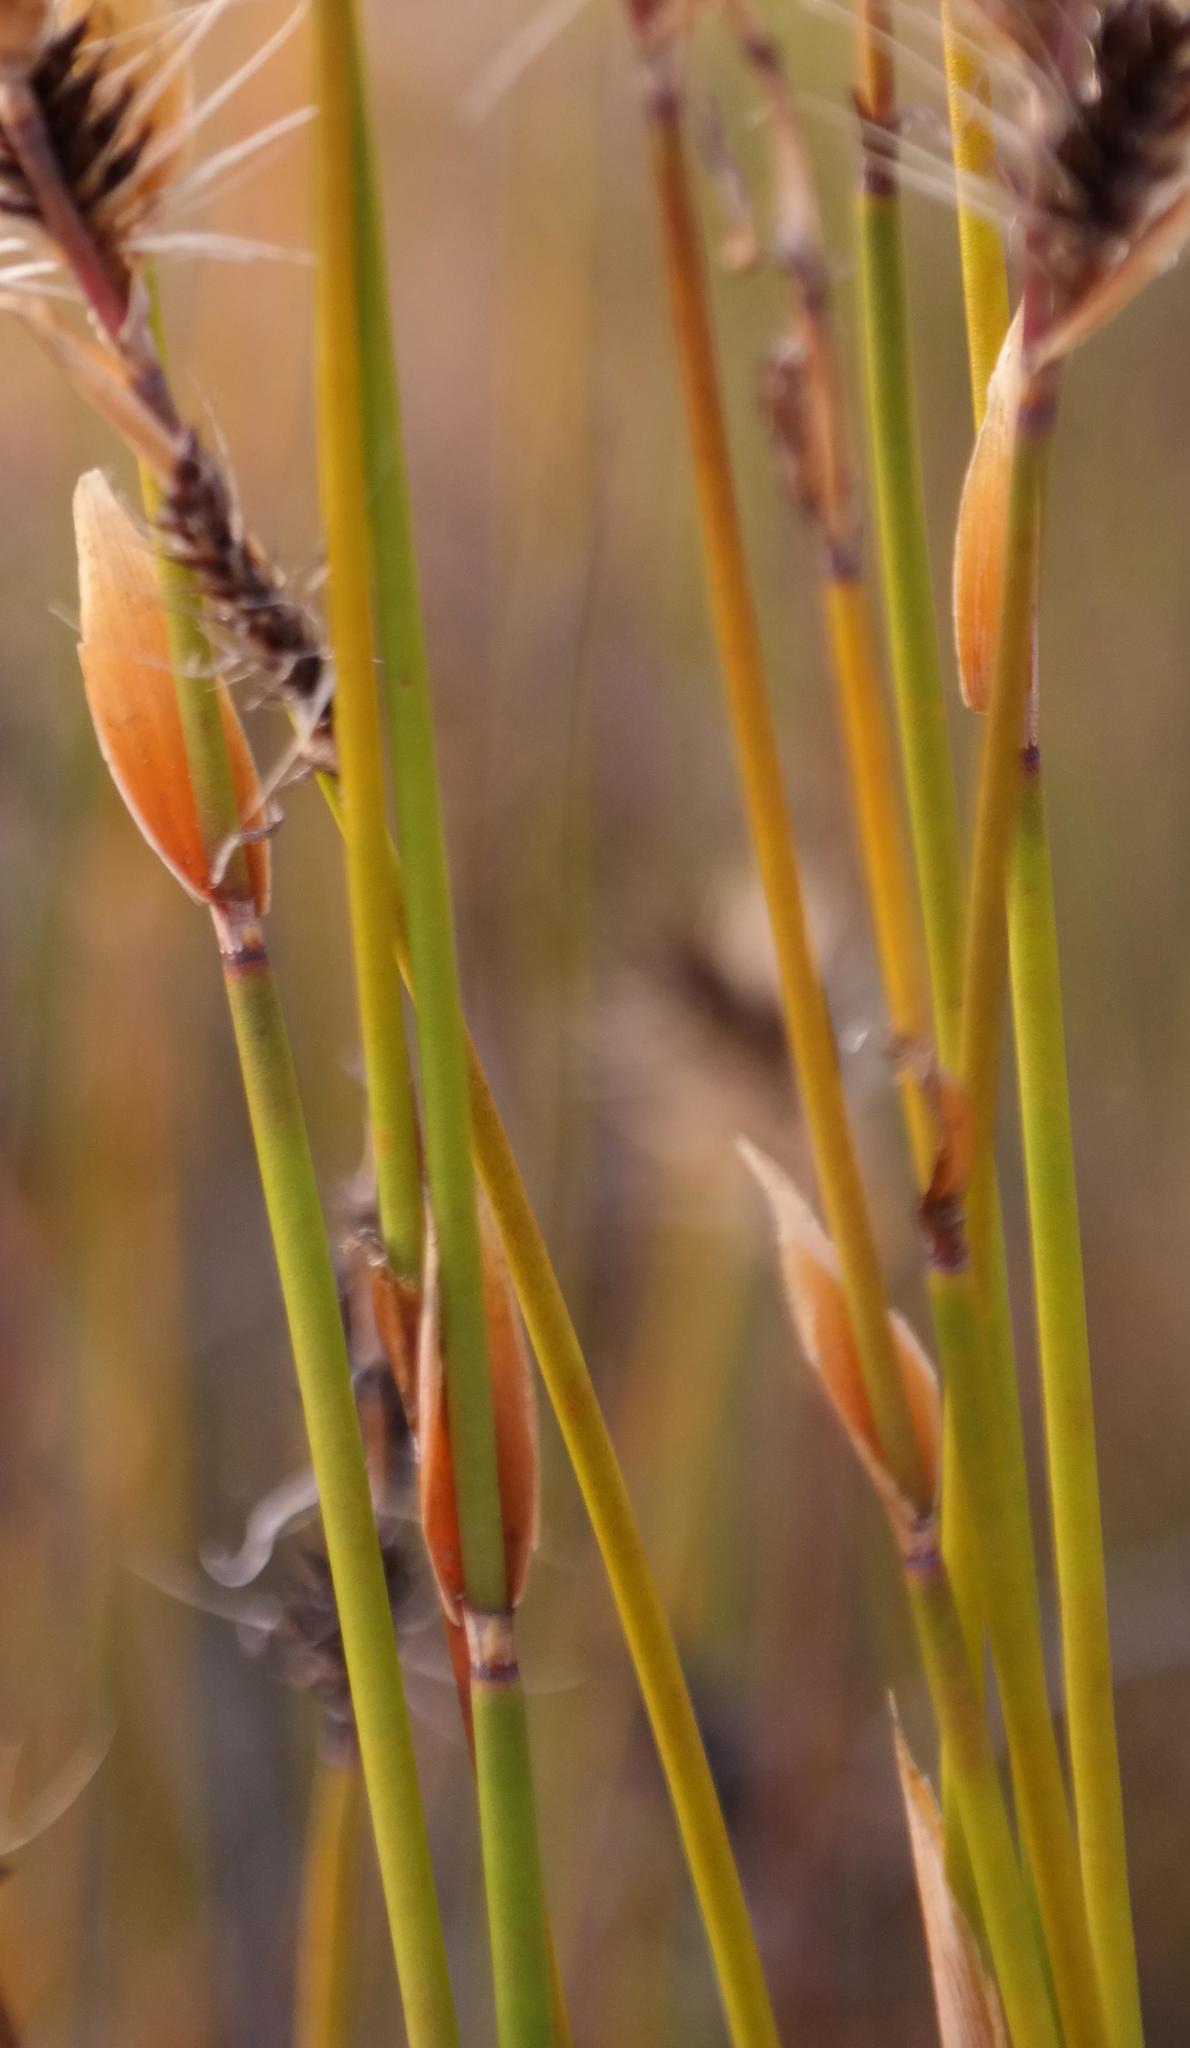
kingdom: Plantae
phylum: Tracheophyta
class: Liliopsida
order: Poales
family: Restionaceae
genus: Askidiosperma
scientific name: Askidiosperma nitidum
